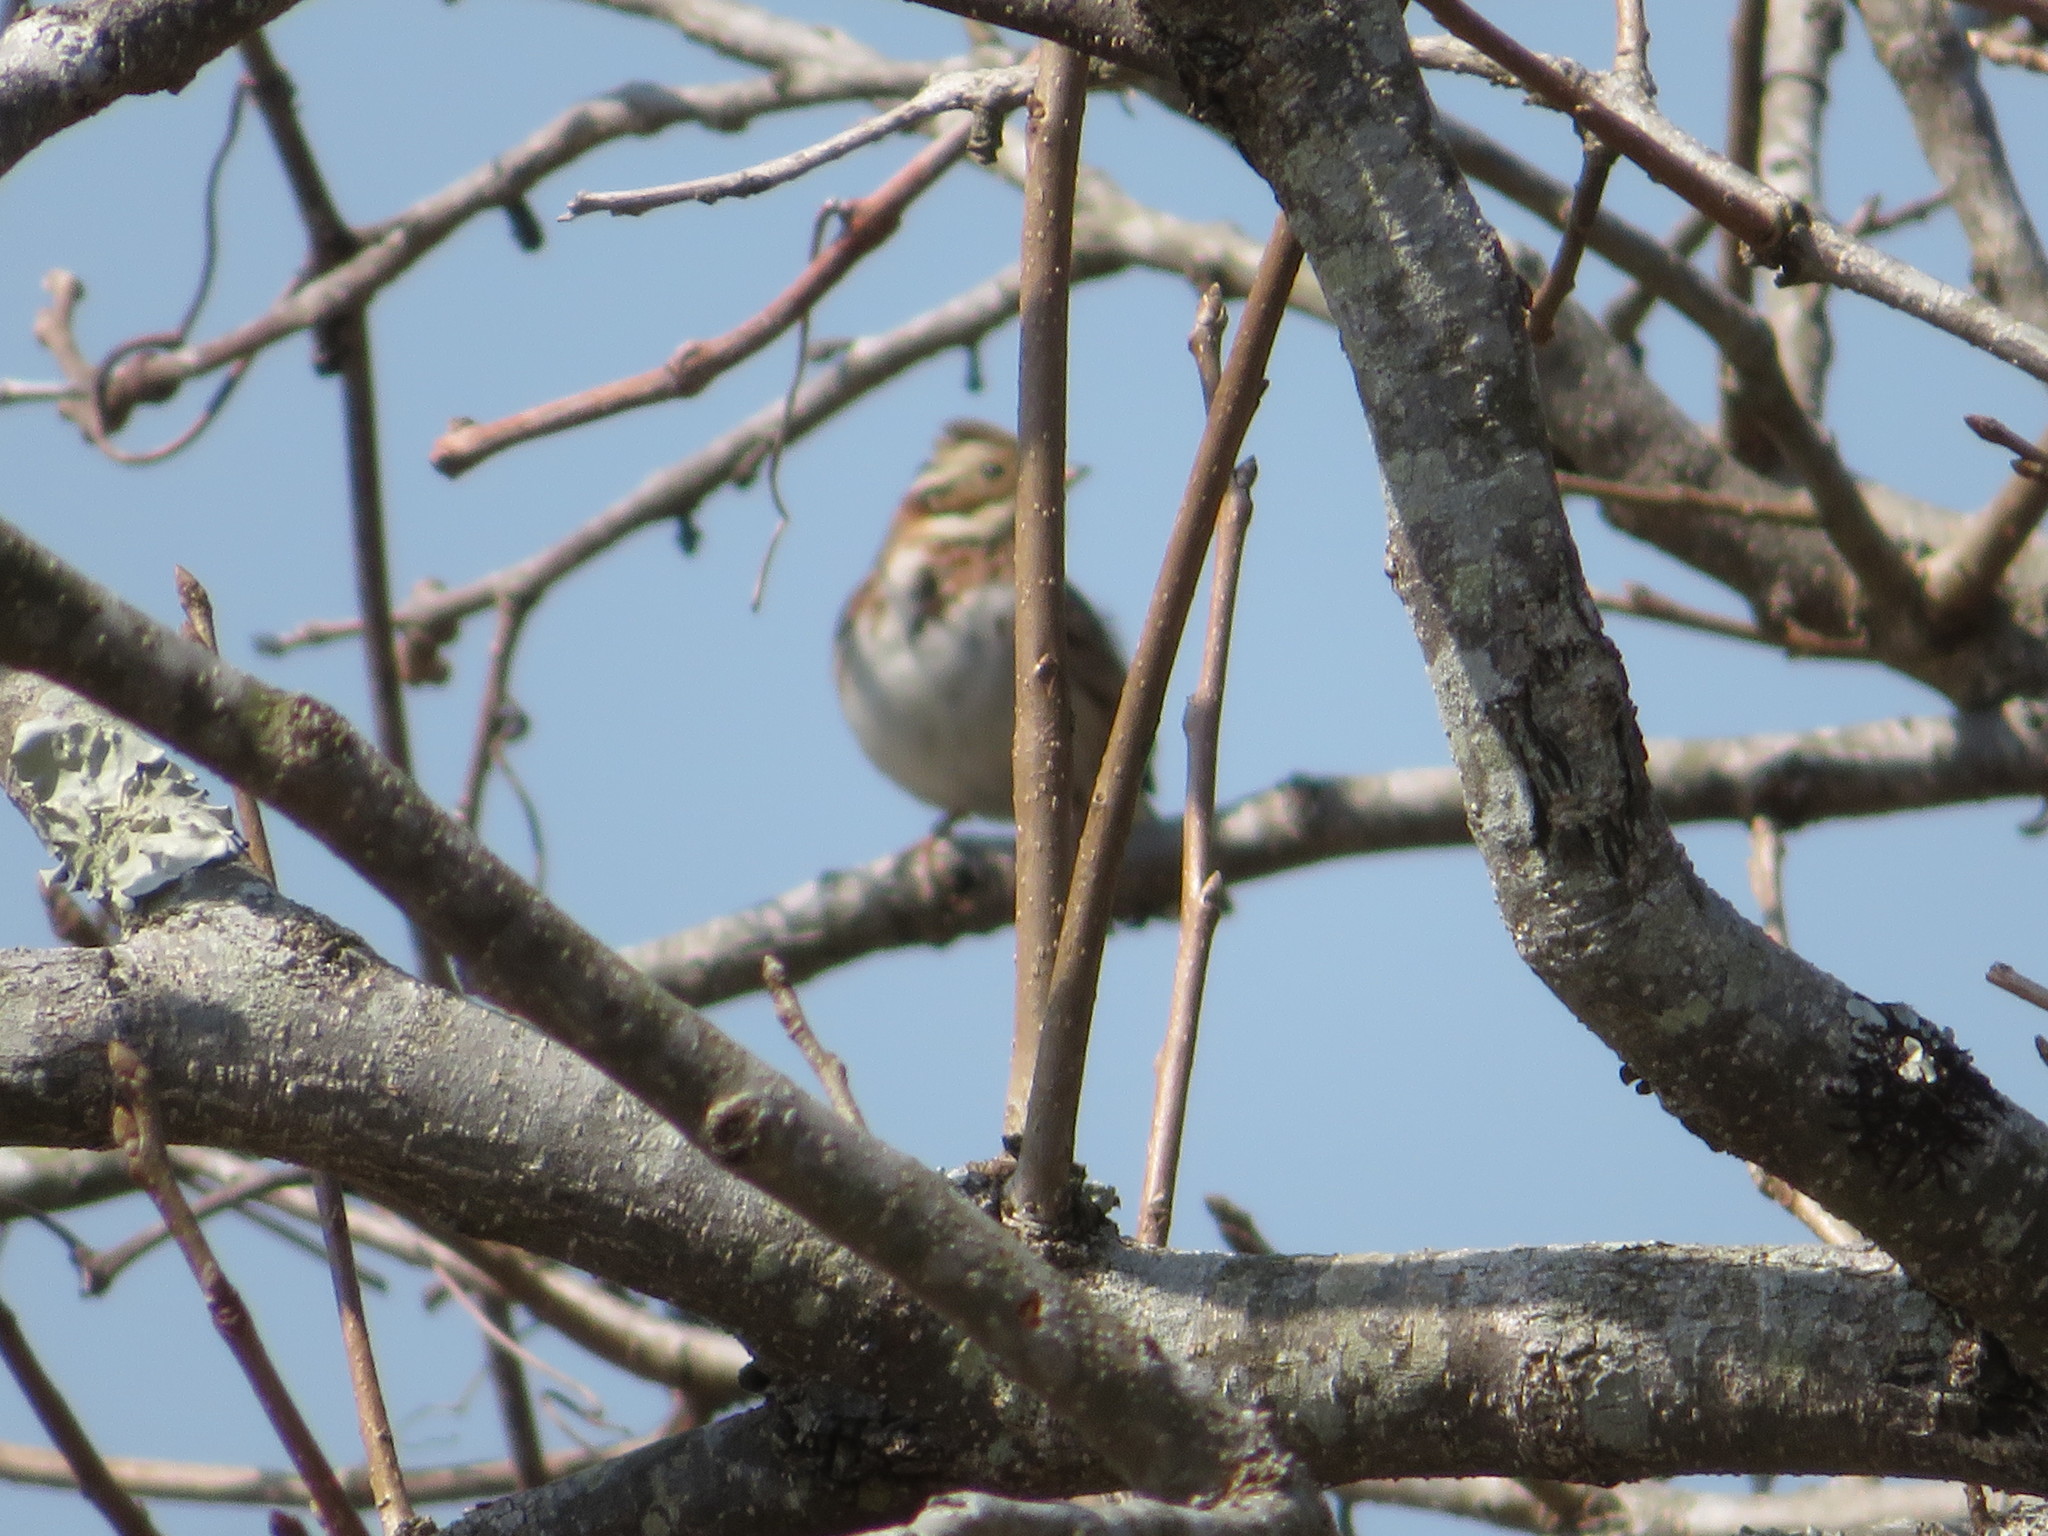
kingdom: Animalia
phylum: Chordata
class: Aves
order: Passeriformes
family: Emberizidae
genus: Emberiza
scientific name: Emberiza rustica
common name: Rustic bunting
